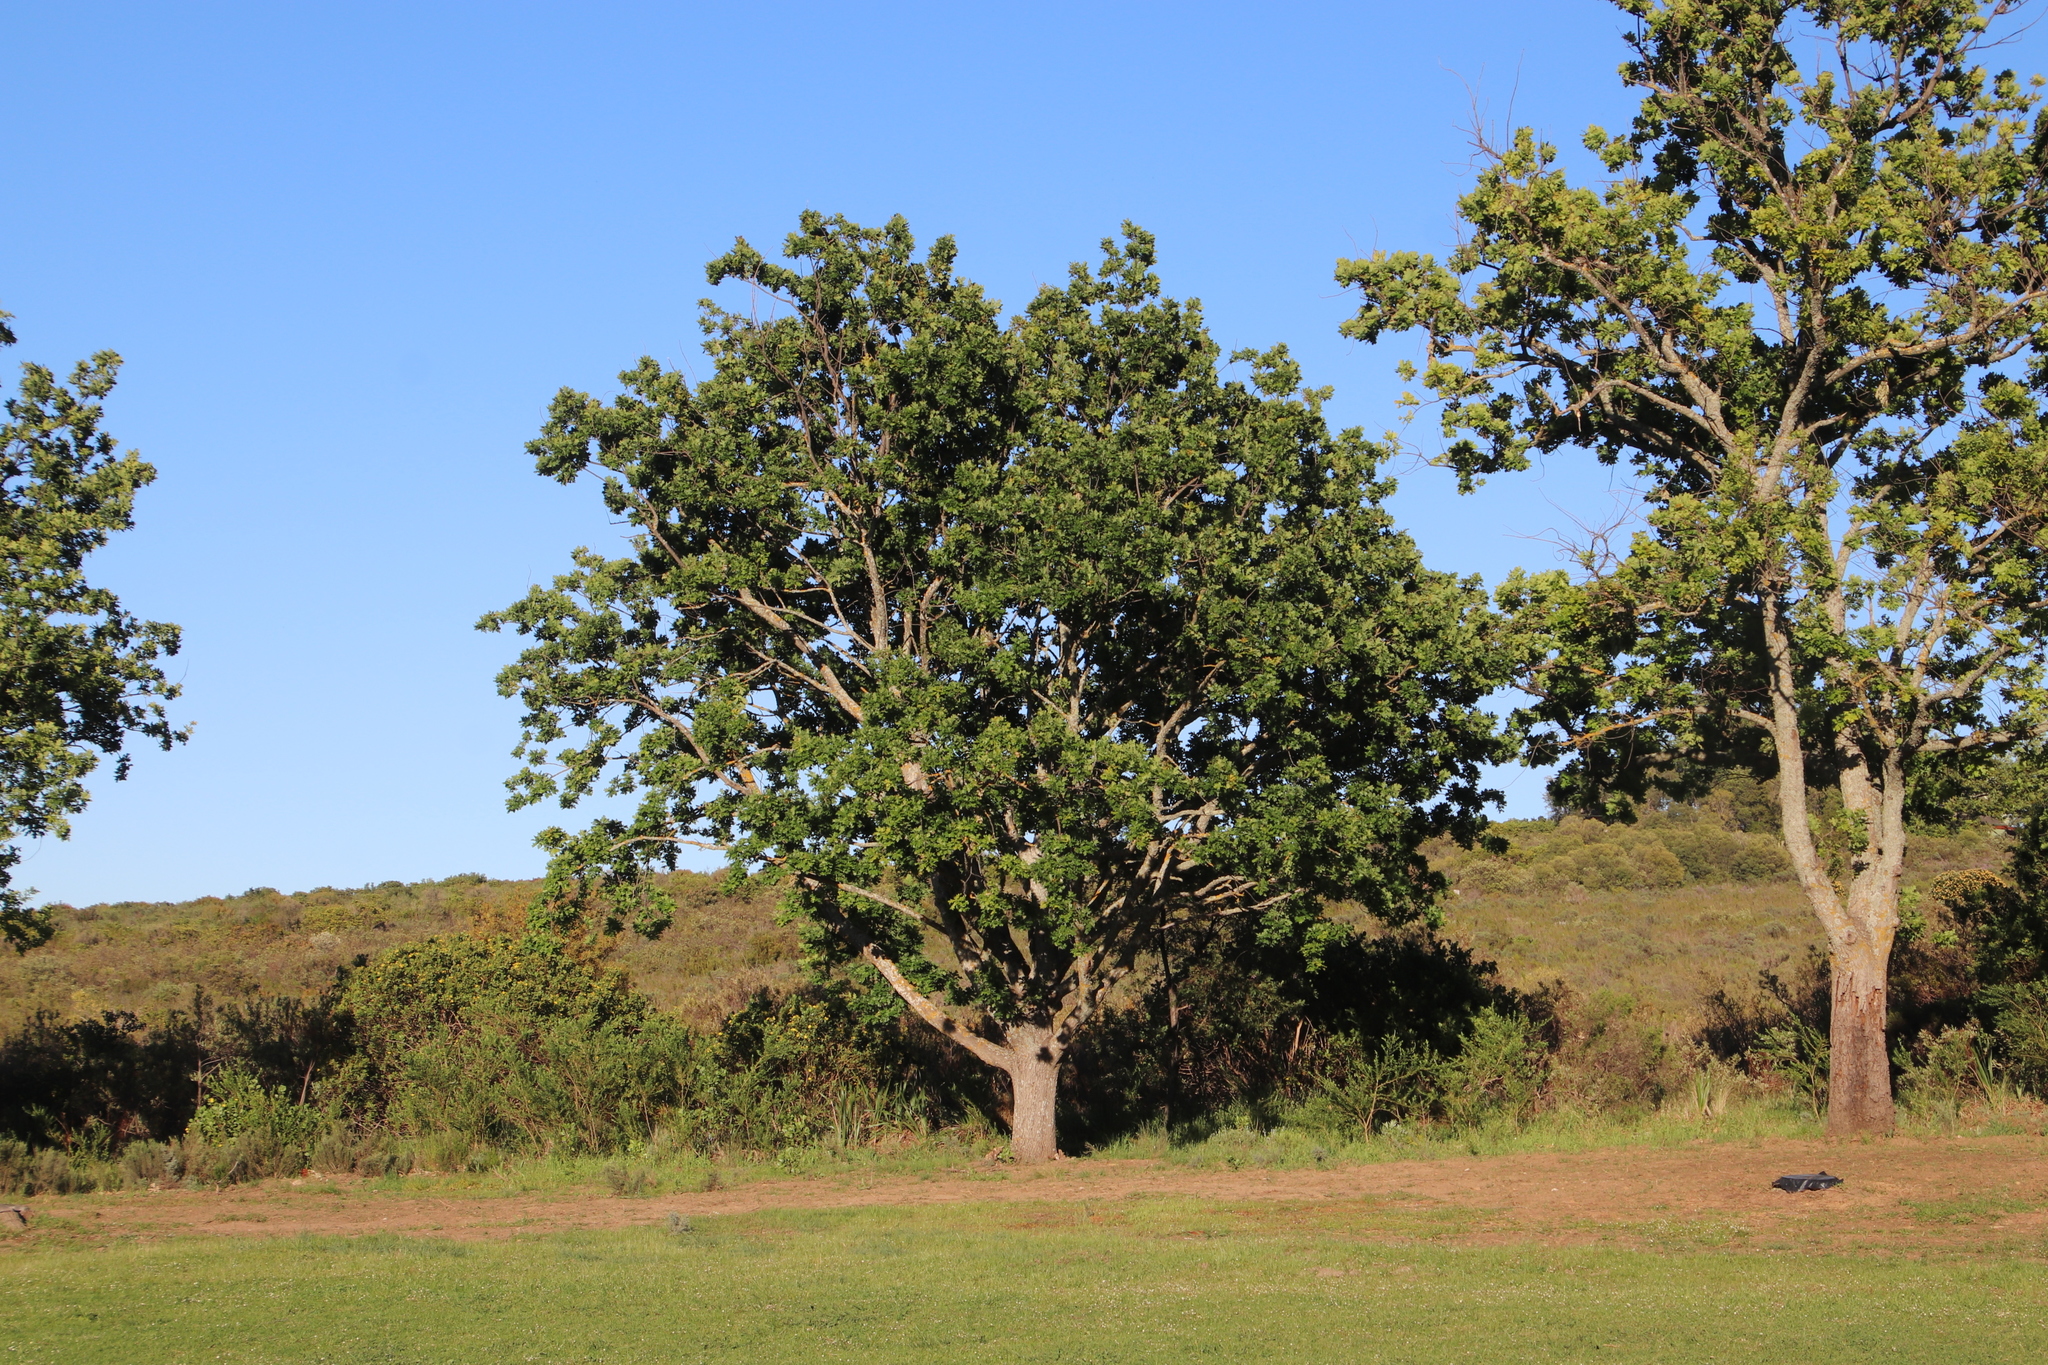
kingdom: Plantae
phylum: Tracheophyta
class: Magnoliopsida
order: Fagales
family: Fagaceae
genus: Quercus
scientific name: Quercus robur
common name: Pedunculate oak
